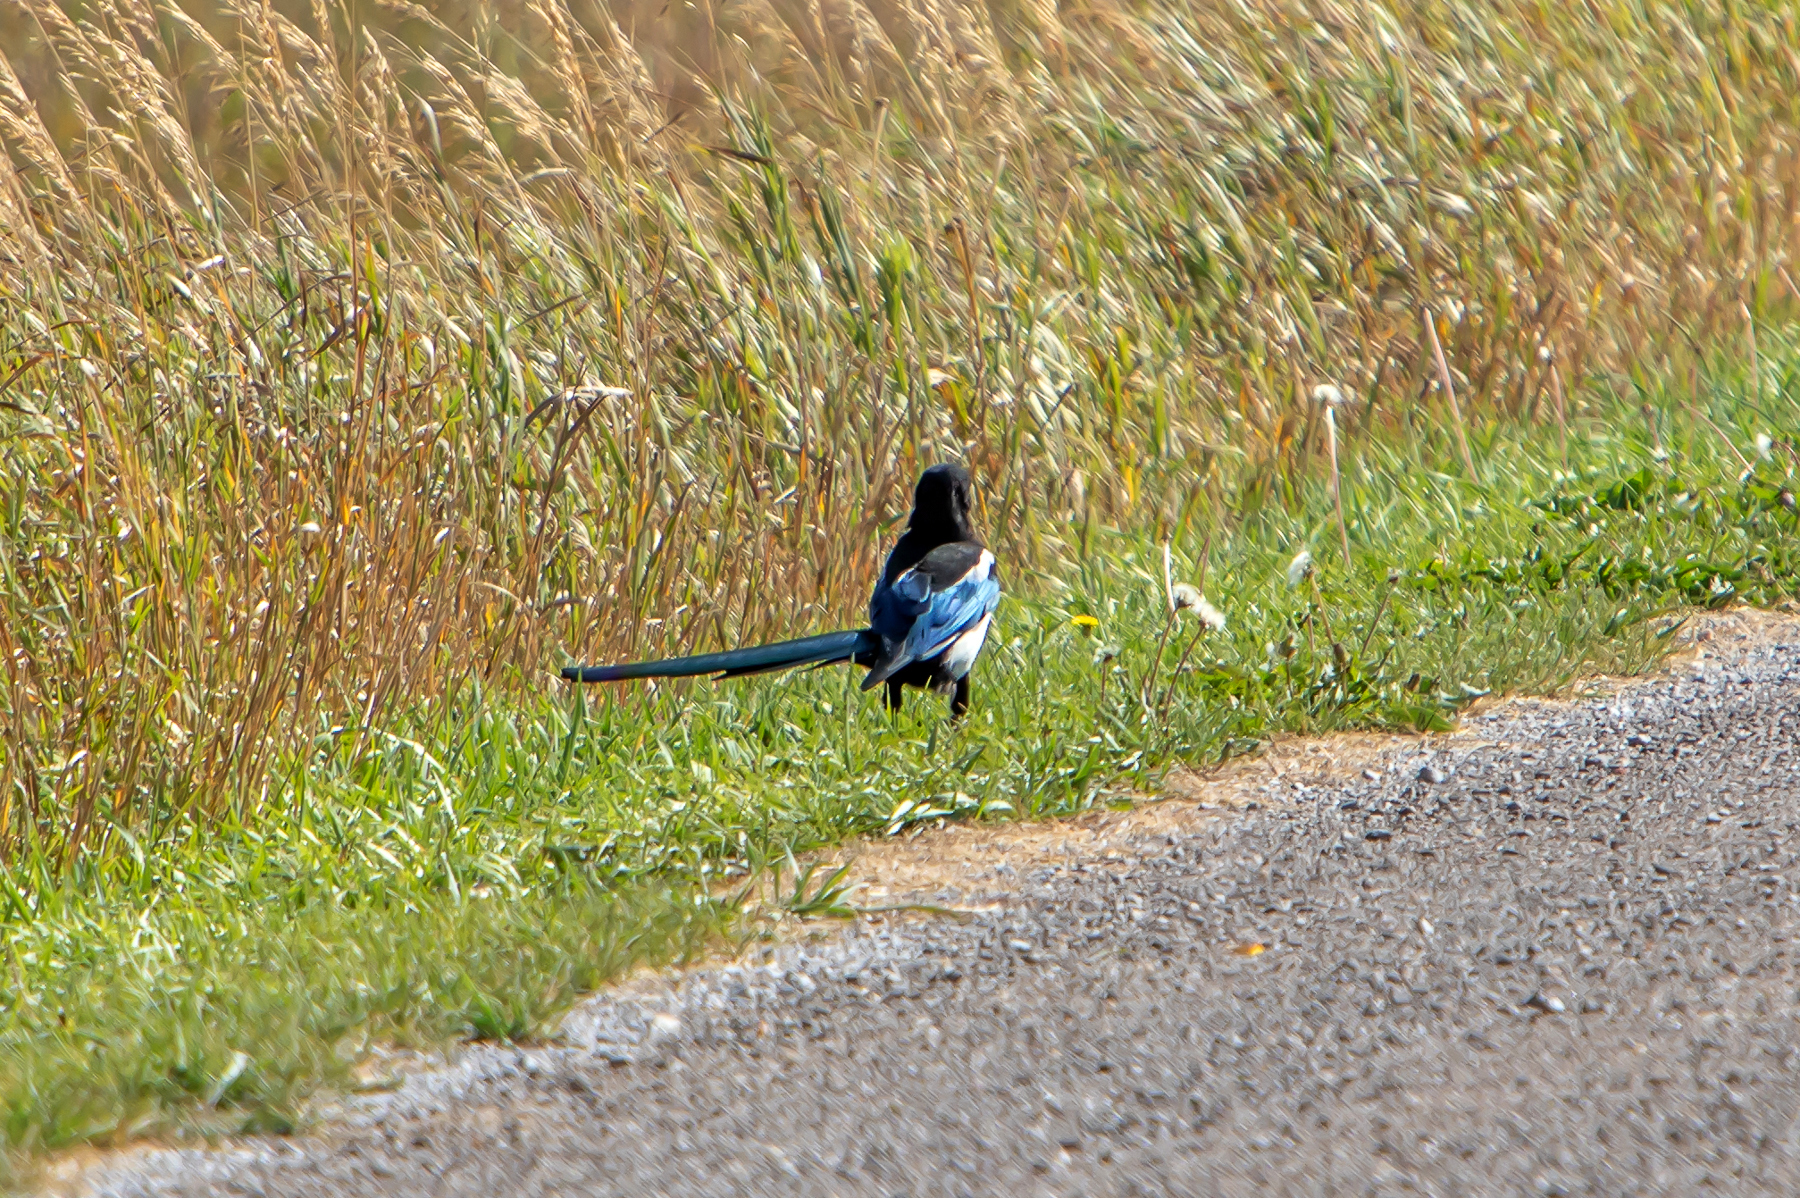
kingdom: Animalia
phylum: Chordata
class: Aves
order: Passeriformes
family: Corvidae
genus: Pica
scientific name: Pica hudsonia
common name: Black-billed magpie
